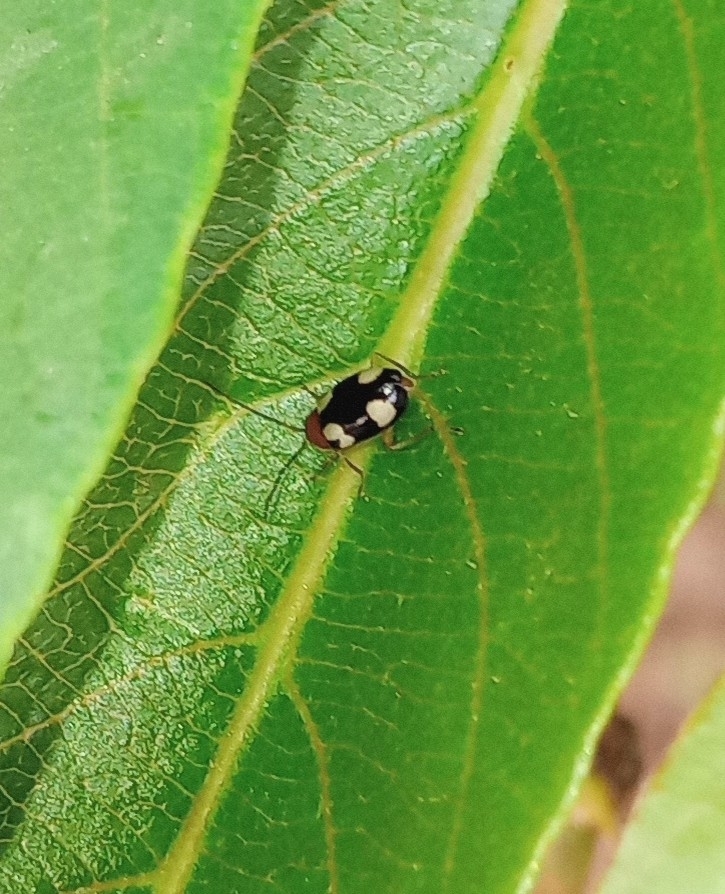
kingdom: Animalia
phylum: Arthropoda
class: Insecta
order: Coleoptera
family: Chrysomelidae
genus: Monolepta
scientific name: Monolepta signata
